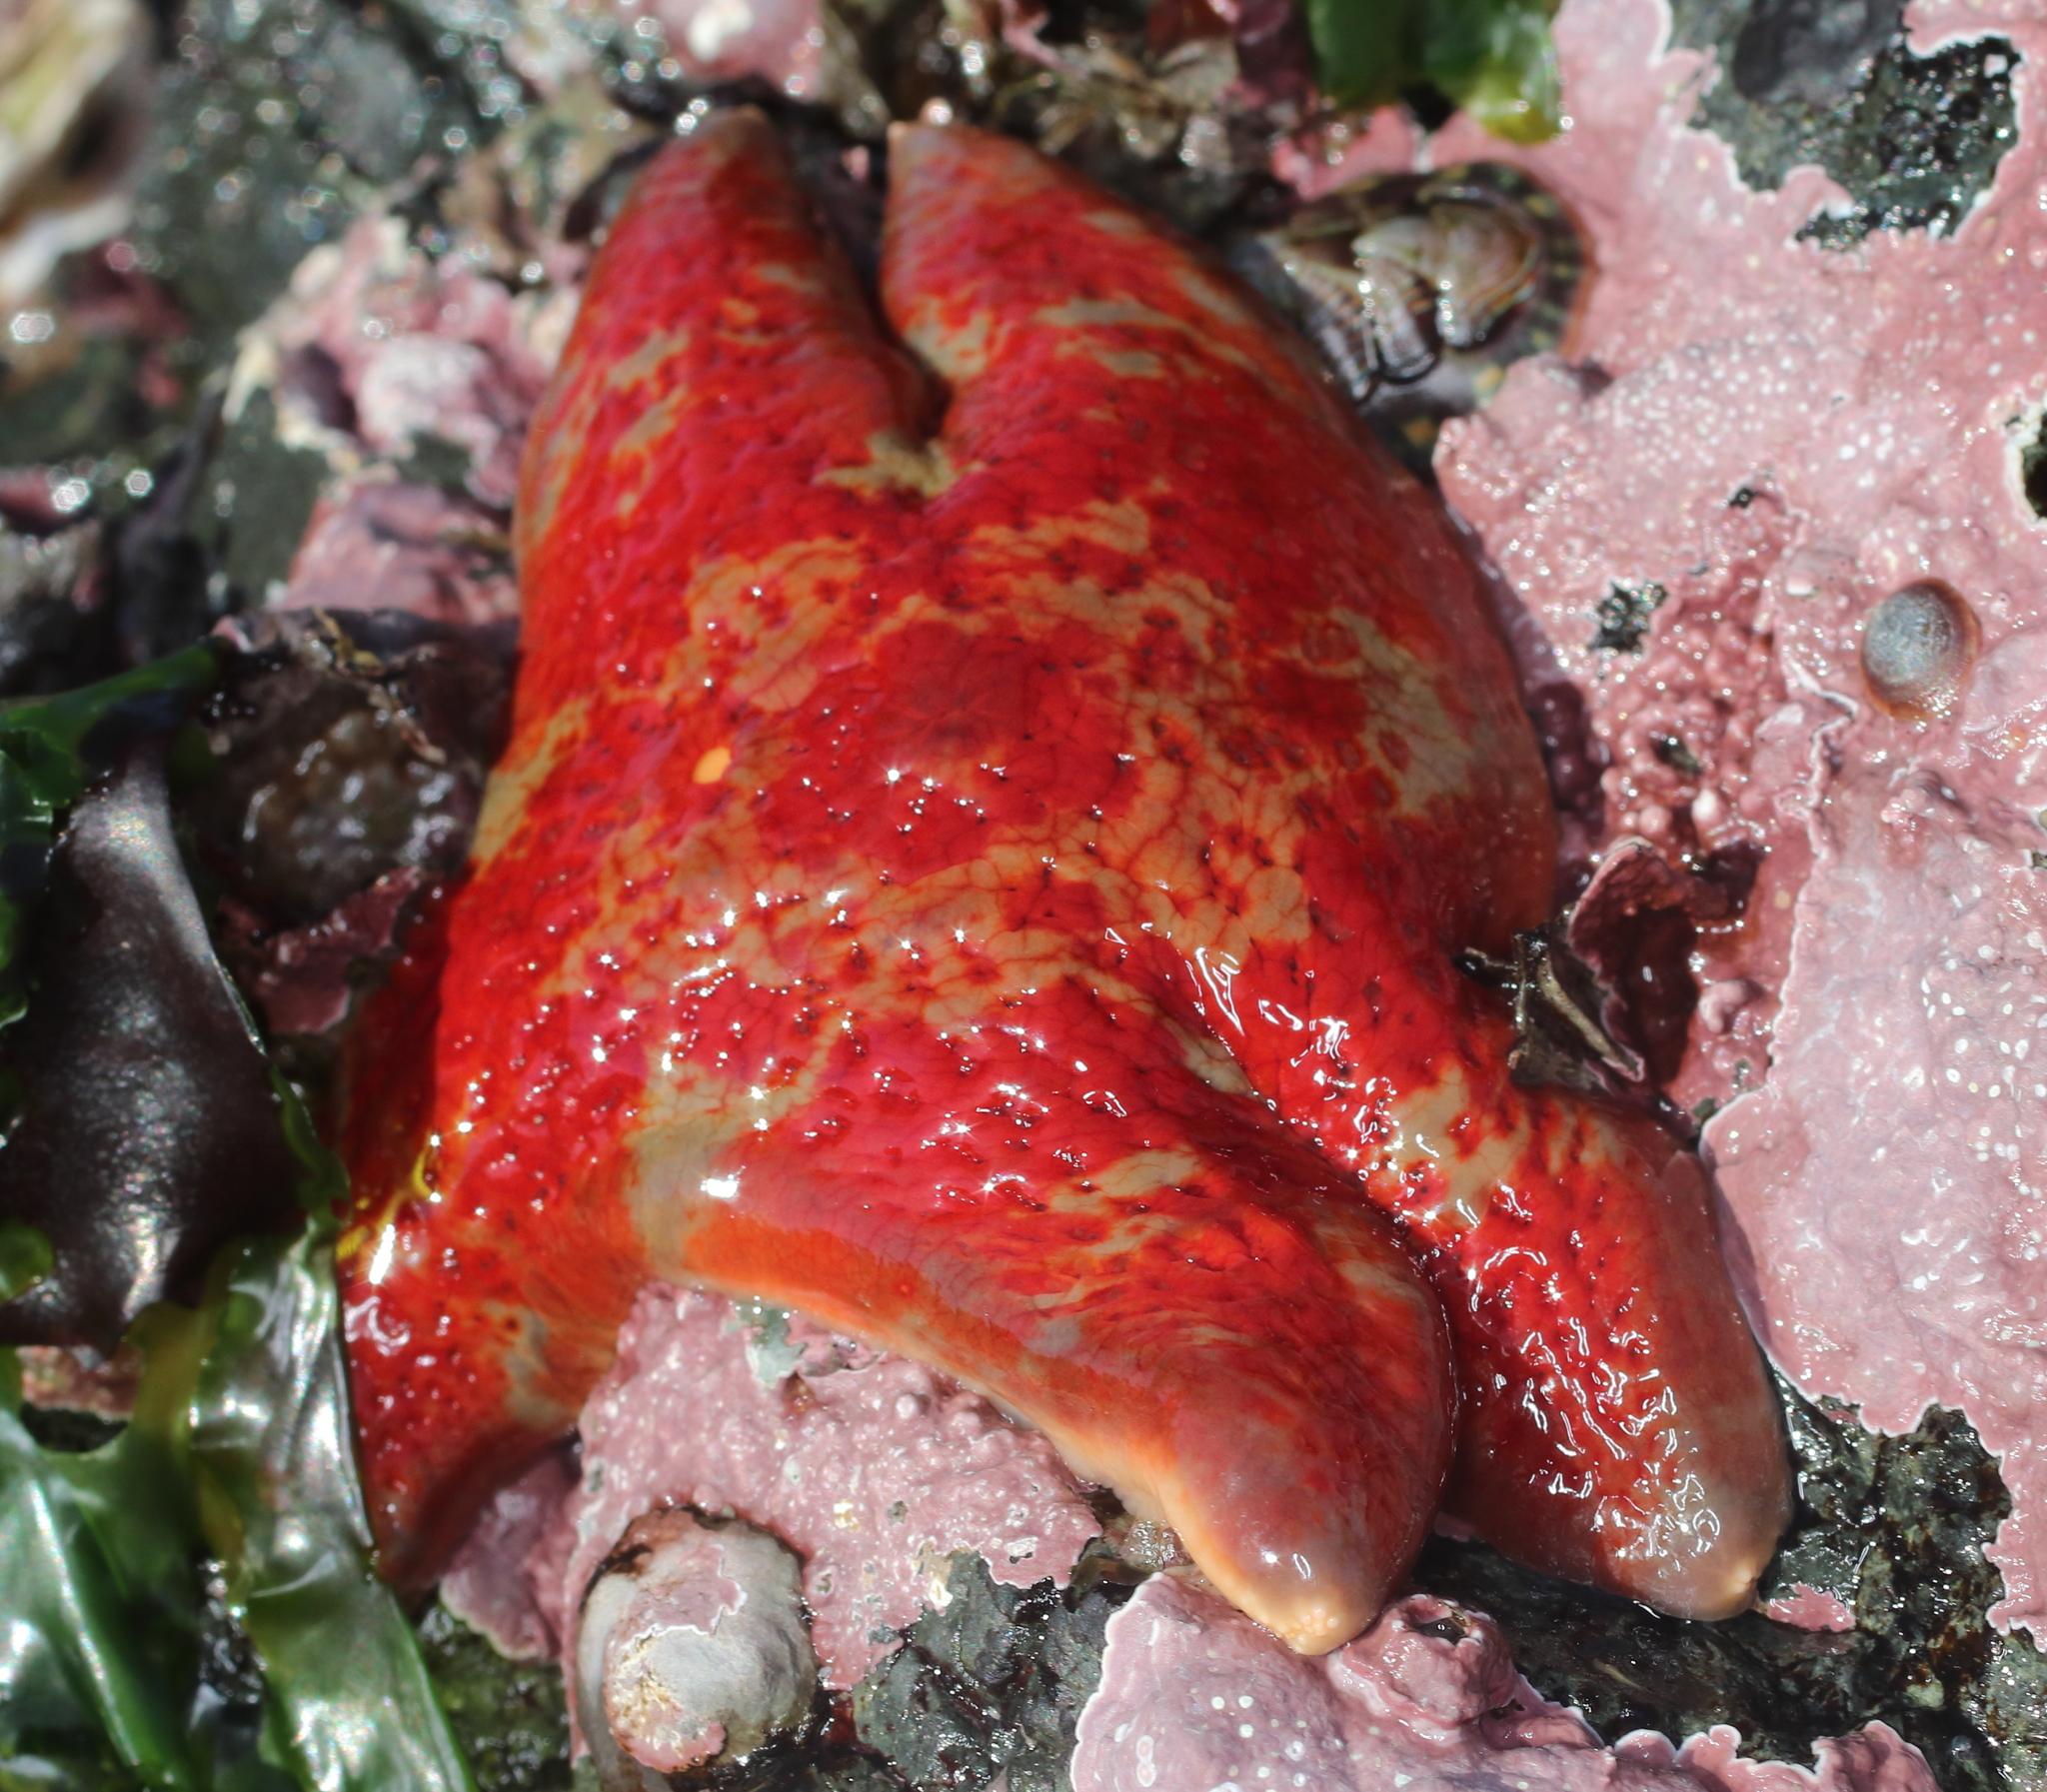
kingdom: Animalia
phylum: Echinodermata
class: Asteroidea
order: Valvatida
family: Asteropseidae
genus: Dermasterias
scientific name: Dermasterias imbricata
